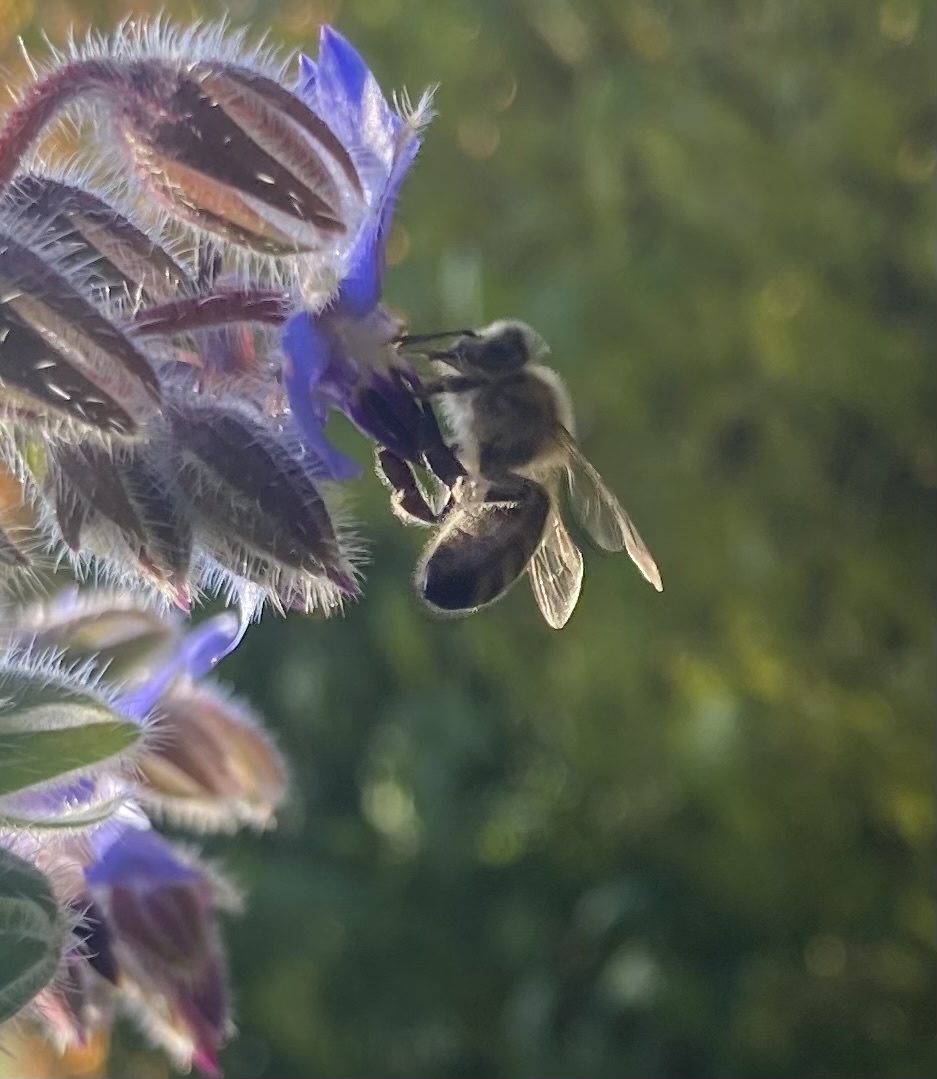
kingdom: Animalia
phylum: Arthropoda
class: Insecta
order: Hymenoptera
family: Apidae
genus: Apis
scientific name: Apis mellifera
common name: Honey bee
